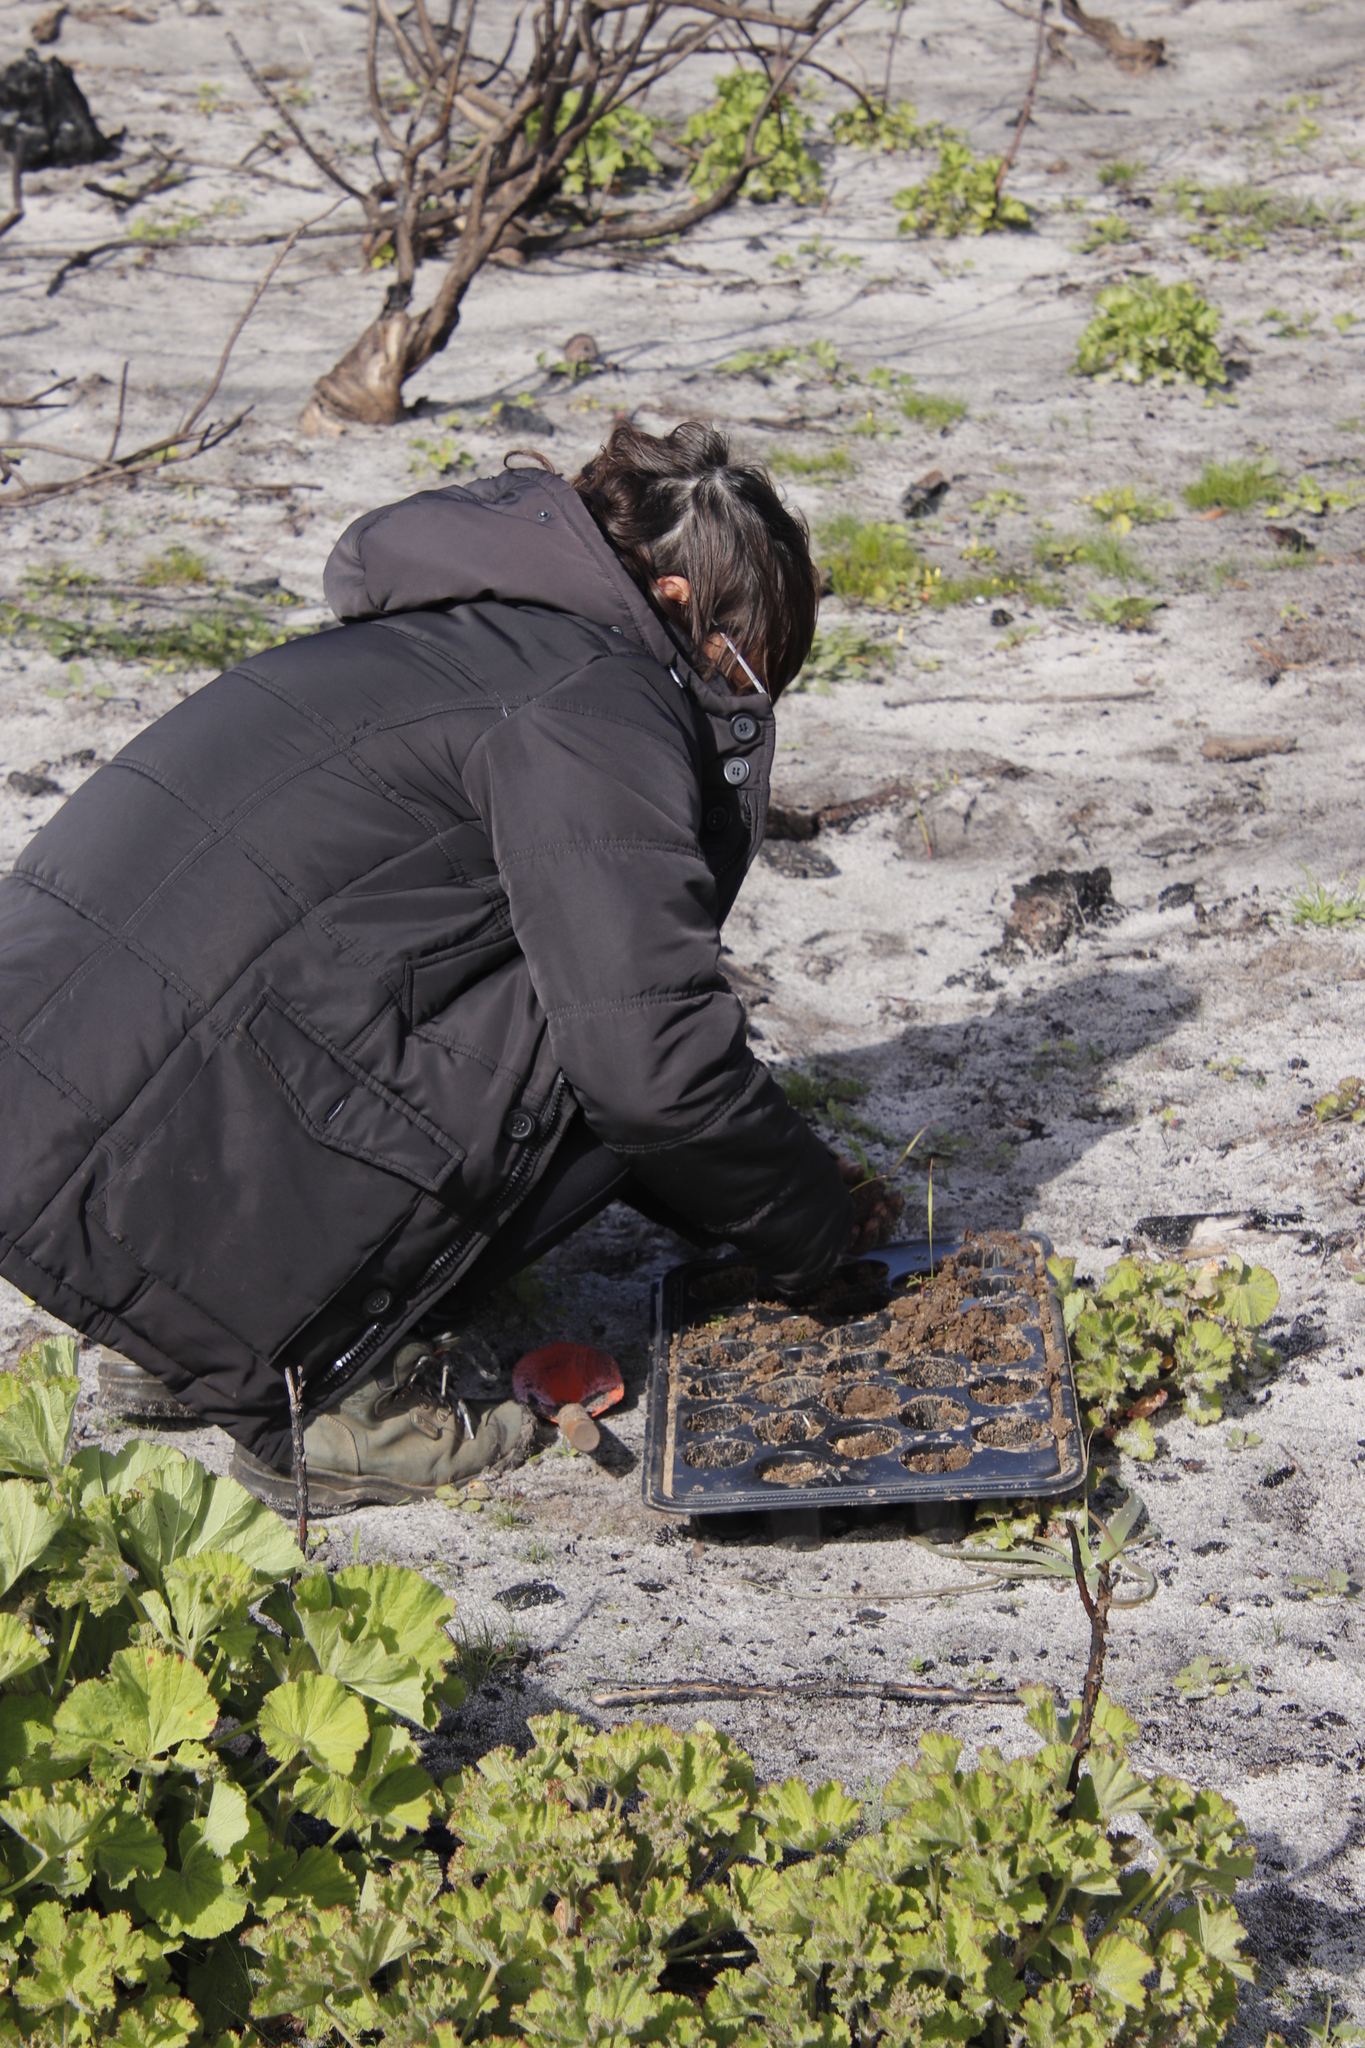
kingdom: Plantae
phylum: Tracheophyta
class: Magnoliopsida
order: Geraniales
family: Geraniaceae
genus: Pelargonium
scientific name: Pelargonium cucullatum
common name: Tree pelargonium
